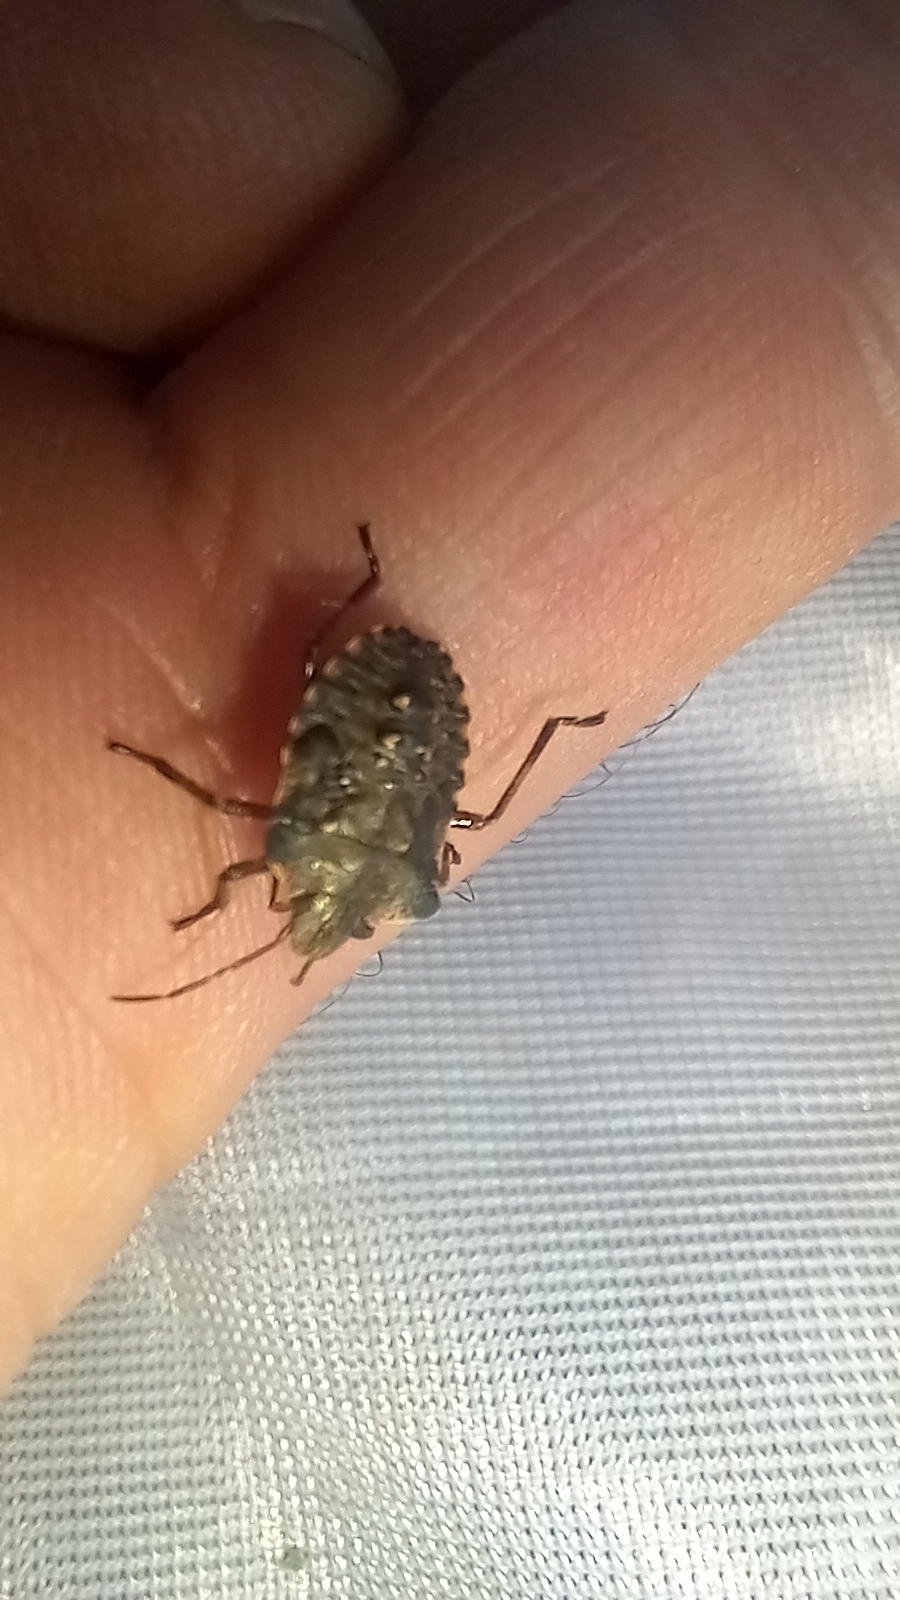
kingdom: Animalia
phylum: Arthropoda
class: Insecta
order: Hemiptera
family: Pentatomidae
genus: Pentatoma
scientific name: Pentatoma rufipes
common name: Forest bug
